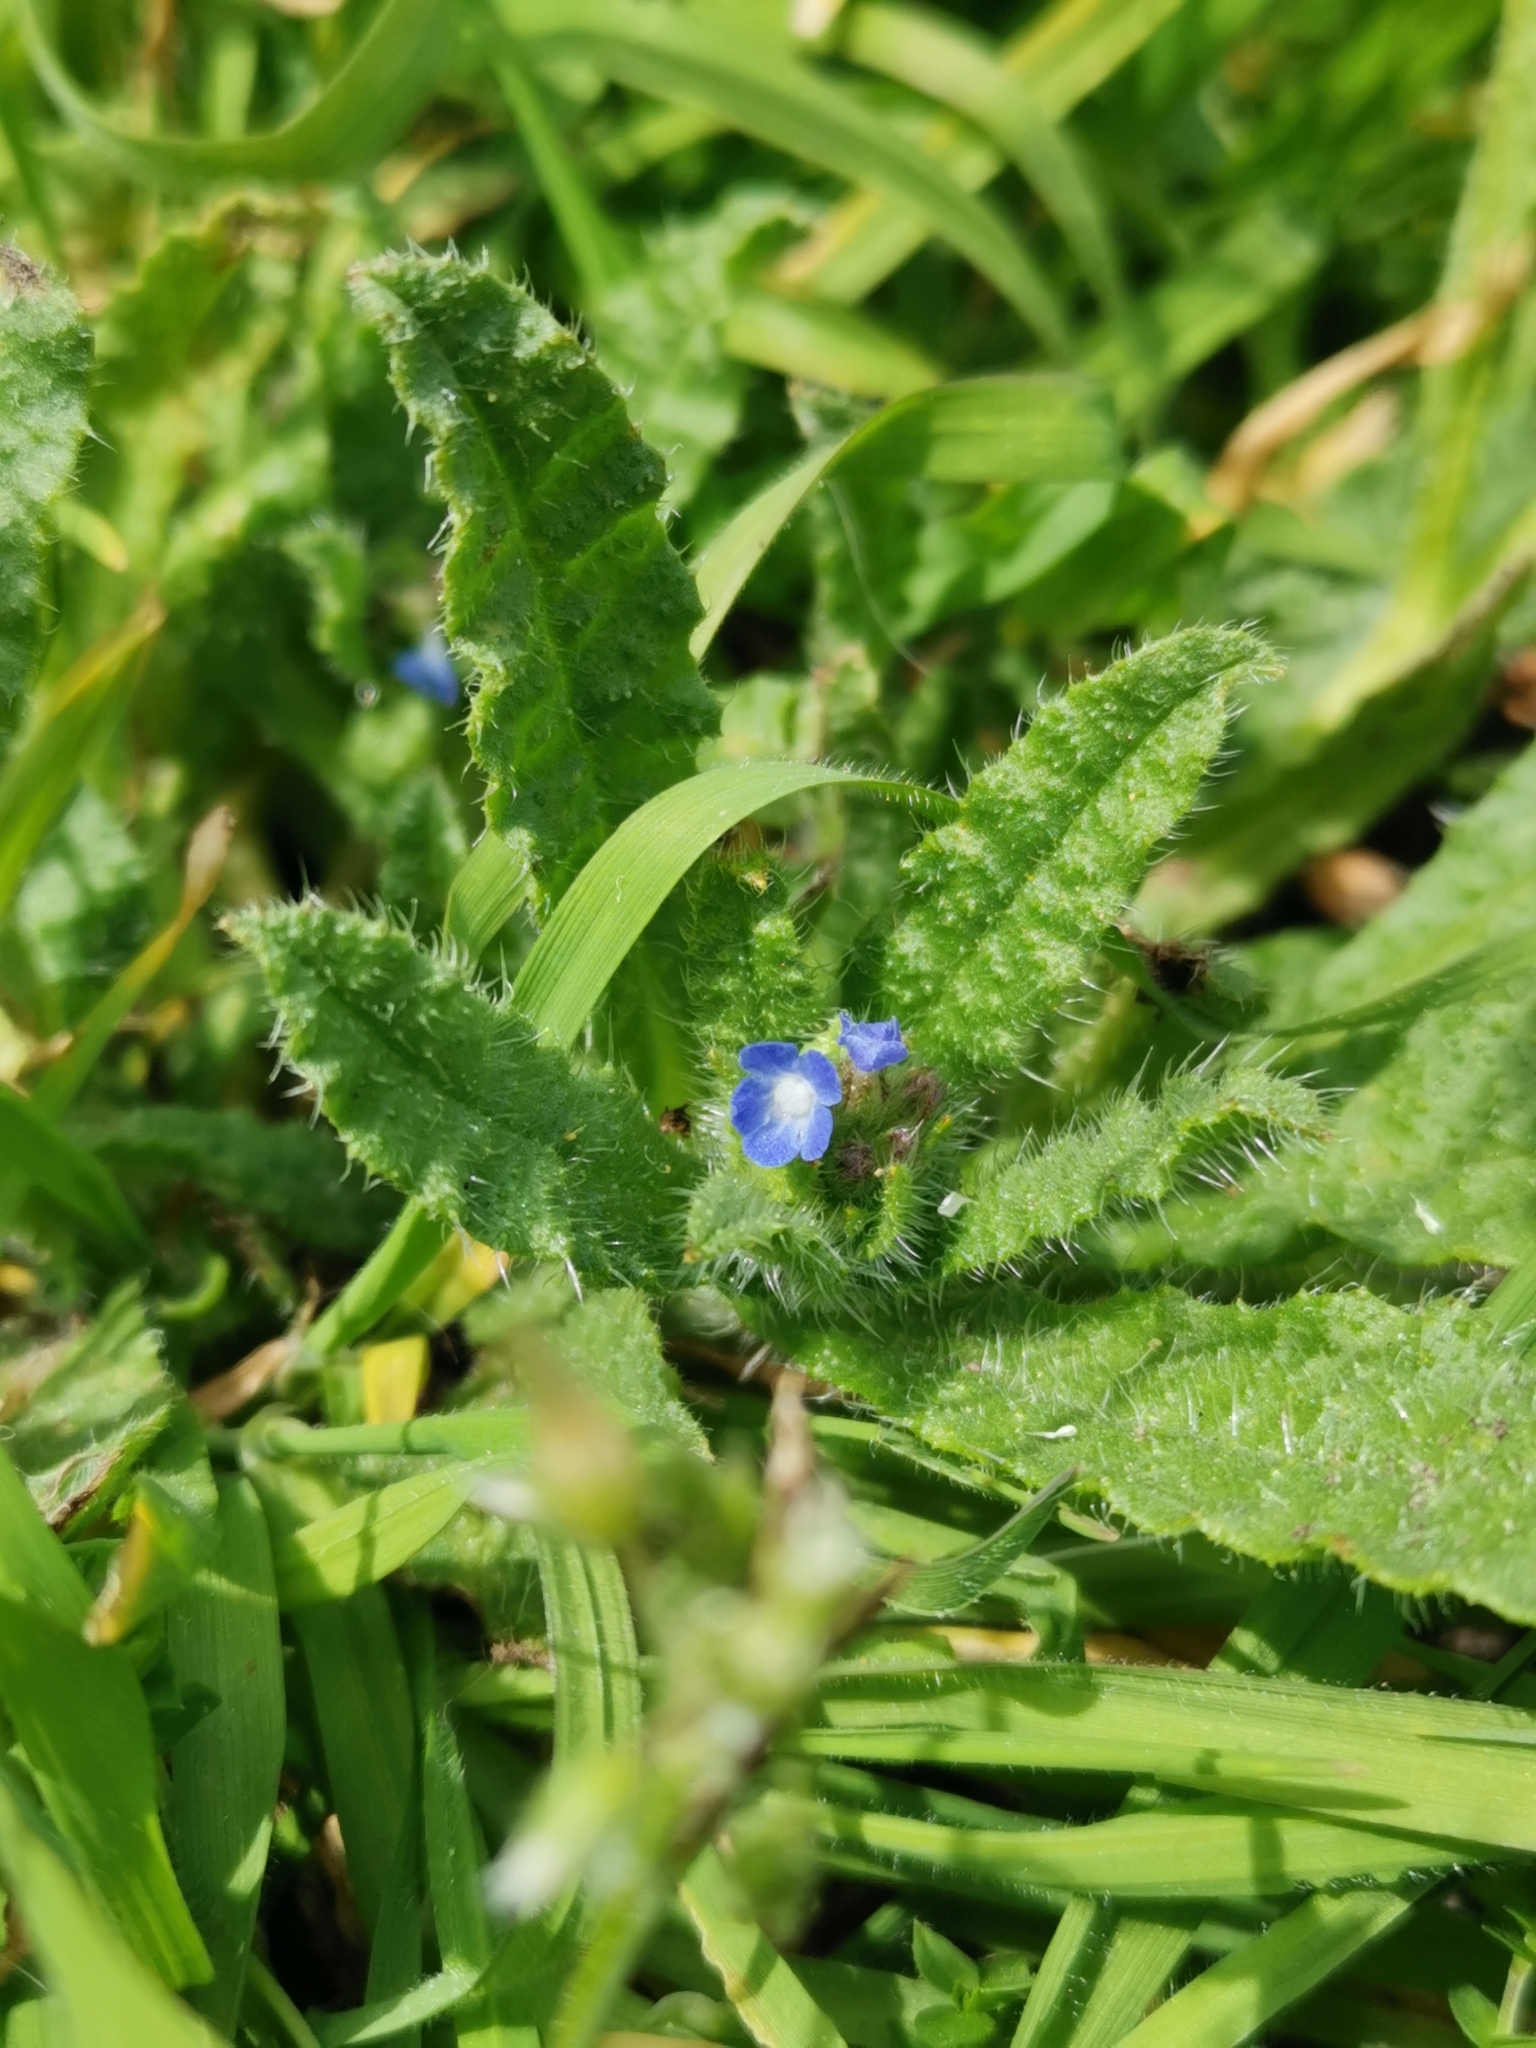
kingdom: Plantae
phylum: Tracheophyta
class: Magnoliopsida
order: Boraginales
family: Boraginaceae
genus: Lycopsis
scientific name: Lycopsis arvensis
